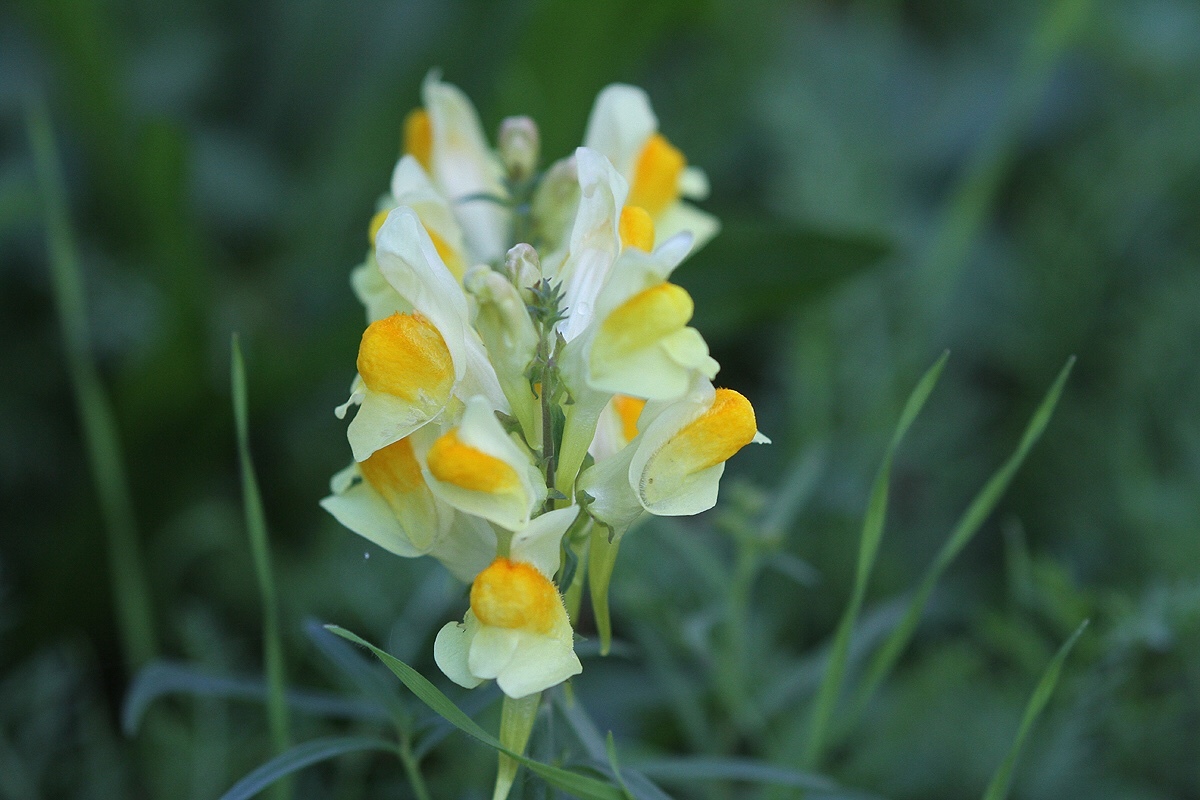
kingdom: Plantae
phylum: Tracheophyta
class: Magnoliopsida
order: Lamiales
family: Plantaginaceae
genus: Linaria
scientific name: Linaria vulgaris
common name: Butter and eggs
